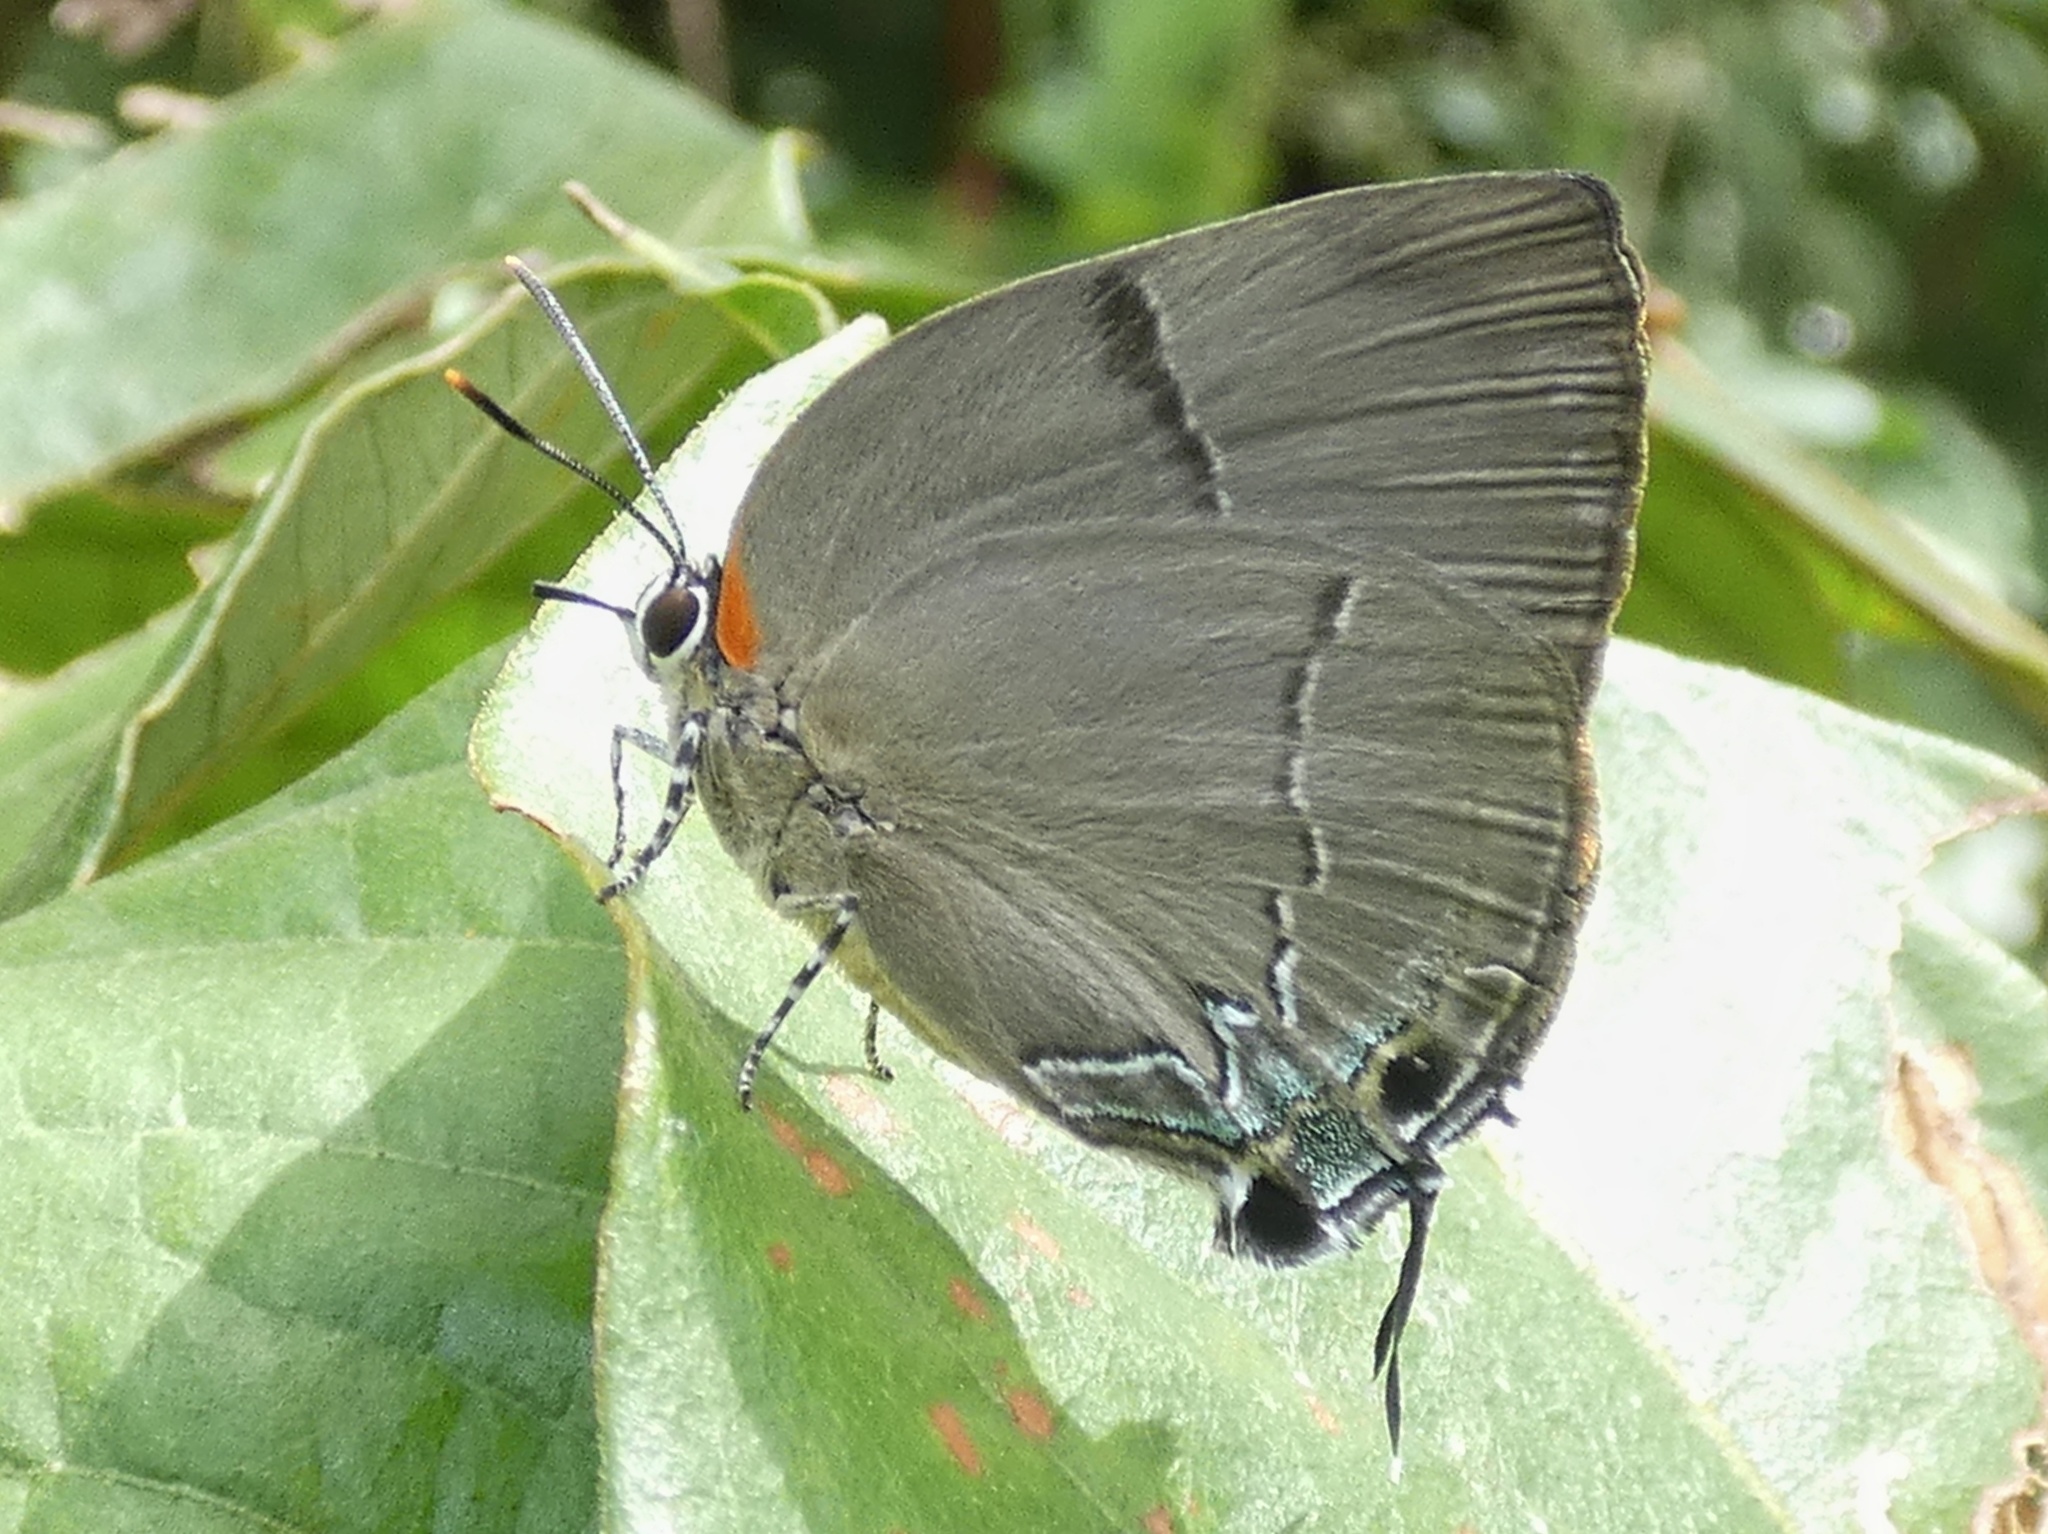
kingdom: Animalia
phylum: Arthropoda
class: Insecta
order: Lepidoptera
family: Lycaenidae
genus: Panthiades
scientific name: Panthiades bitias
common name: Bitias hairstreak
